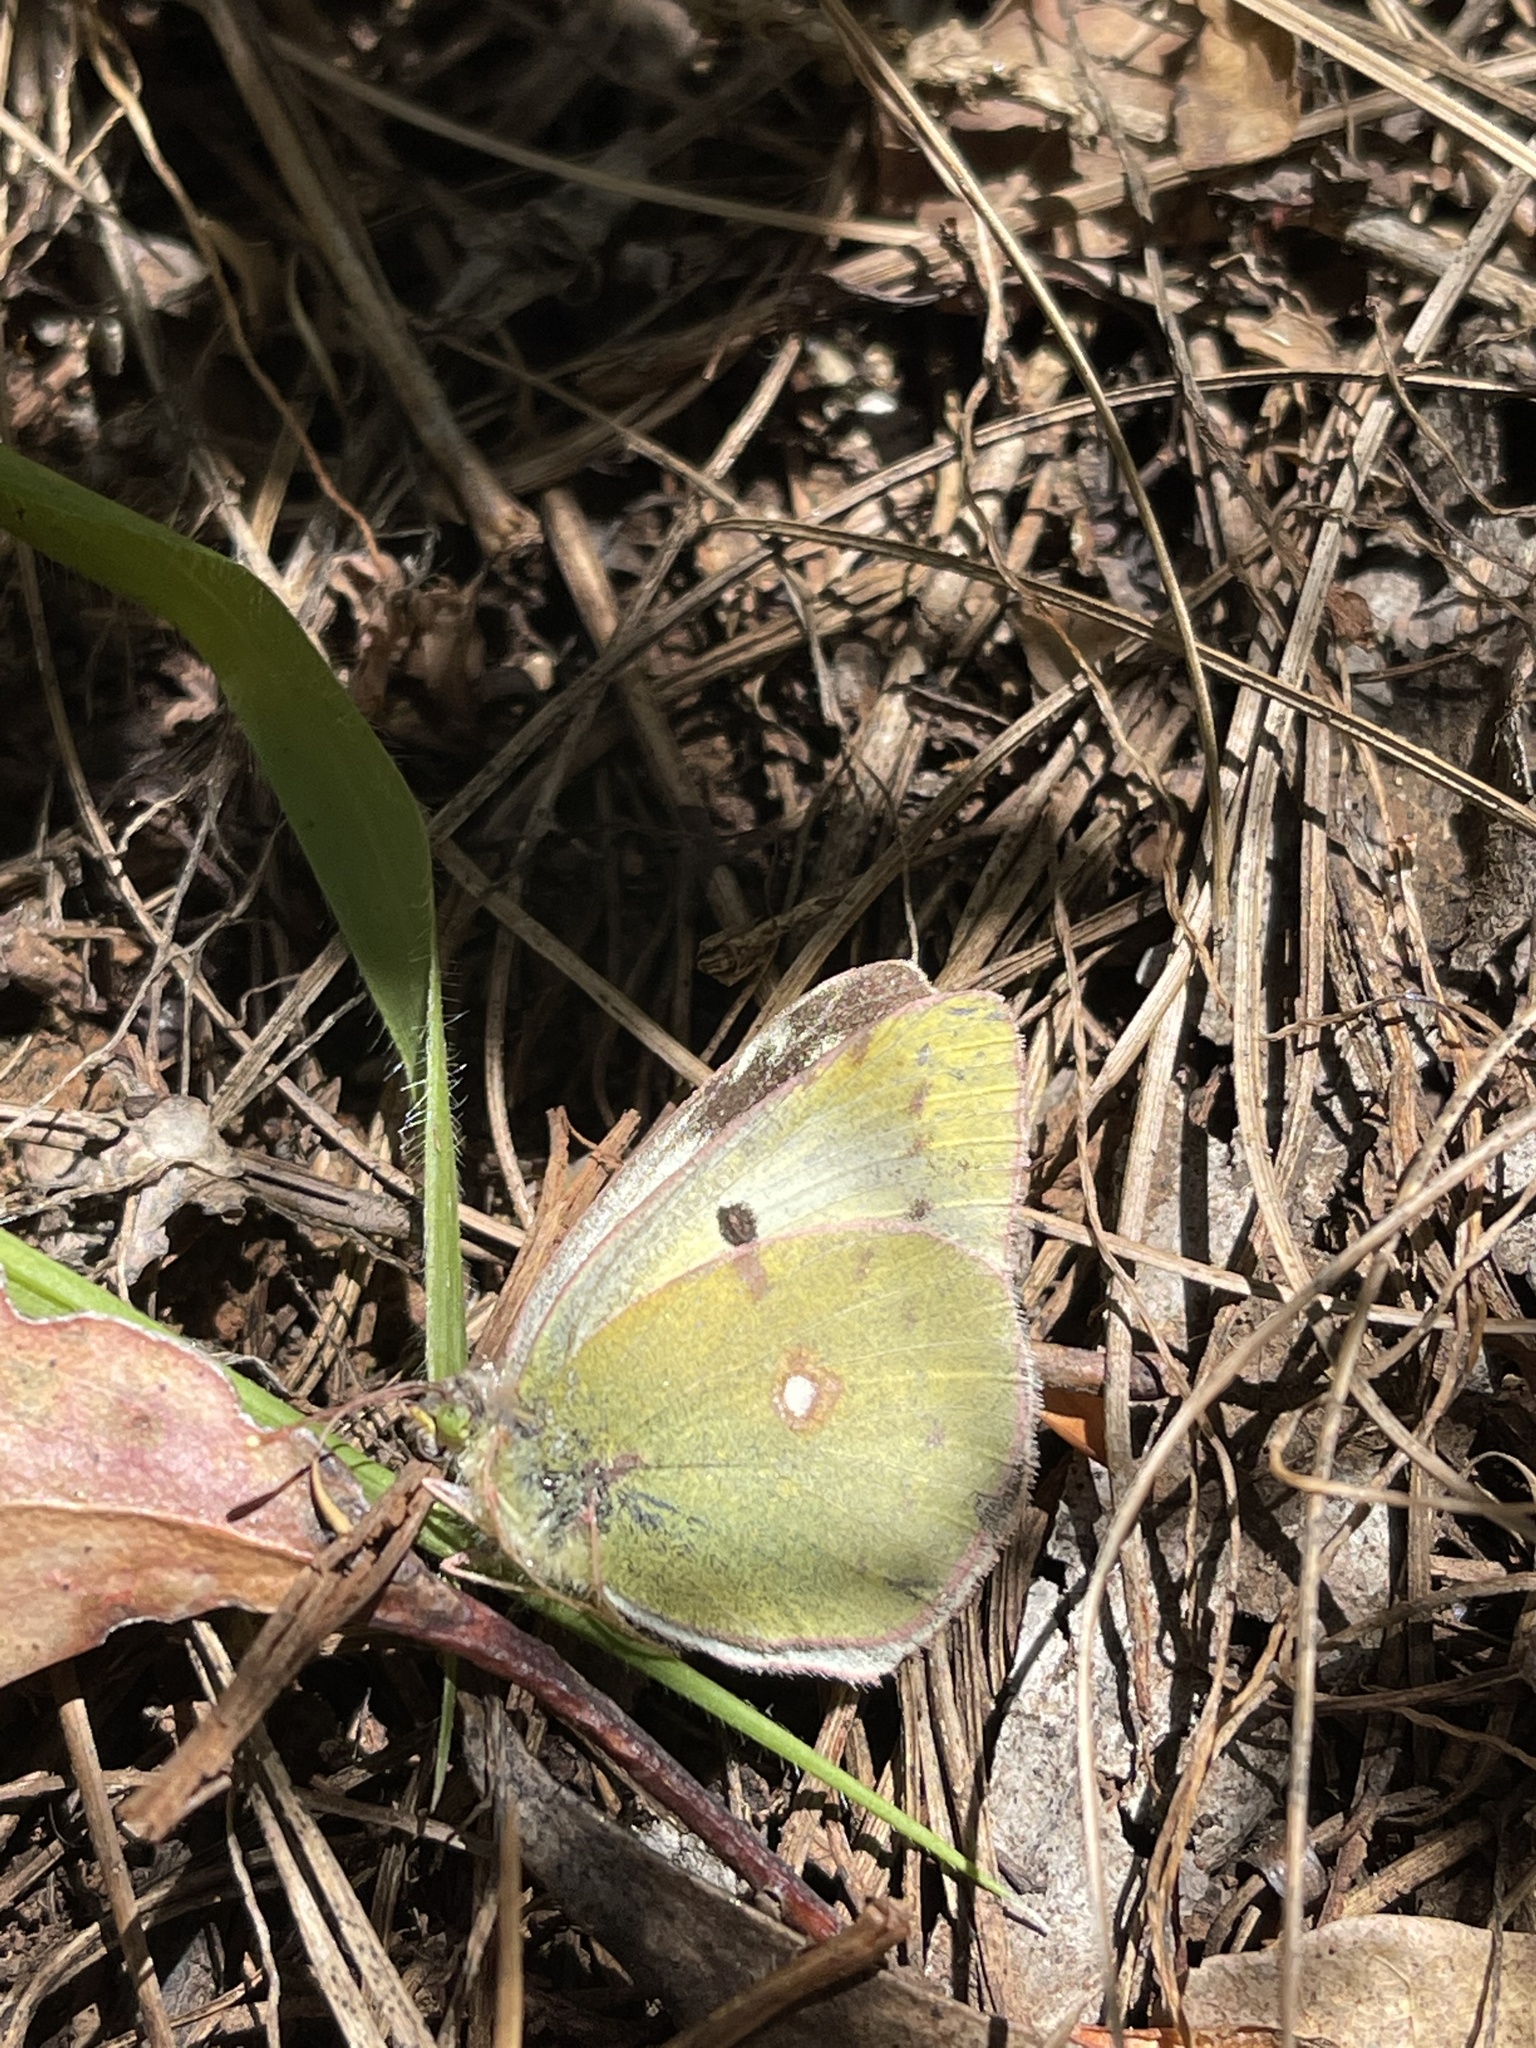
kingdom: Animalia
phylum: Arthropoda
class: Insecta
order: Lepidoptera
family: Pieridae
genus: Colias
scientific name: Colias croceus
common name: Clouded yellow
